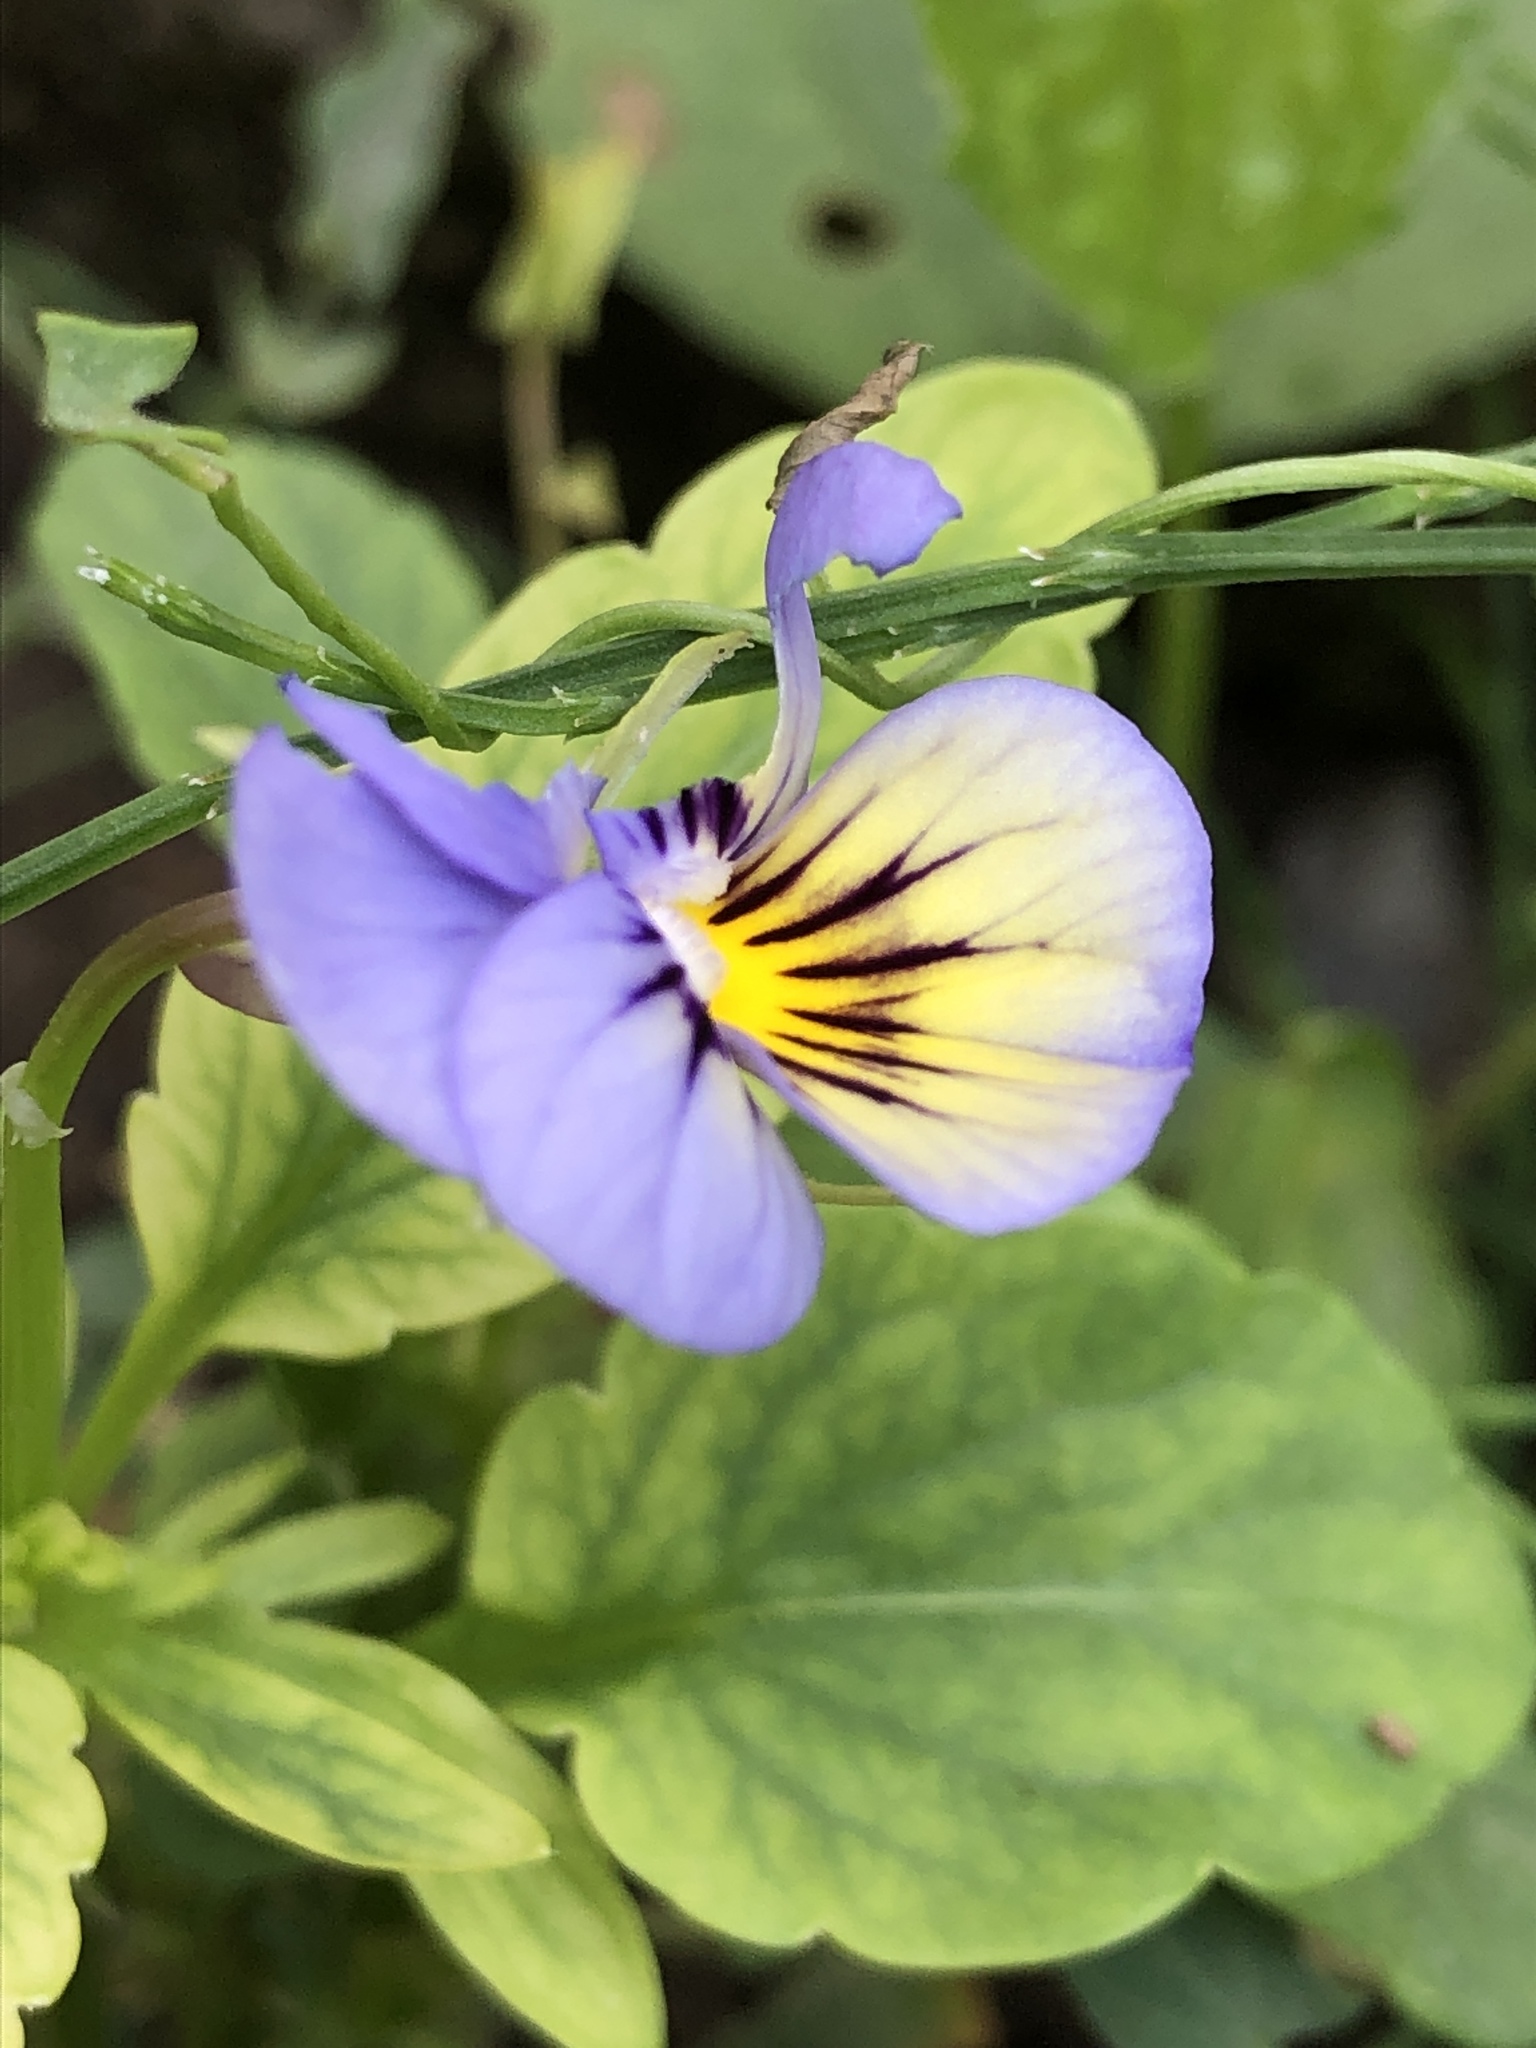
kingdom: Plantae
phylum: Tracheophyta
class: Magnoliopsida
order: Malpighiales
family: Violaceae
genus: Viola
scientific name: Viola tricolor
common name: Pansy
